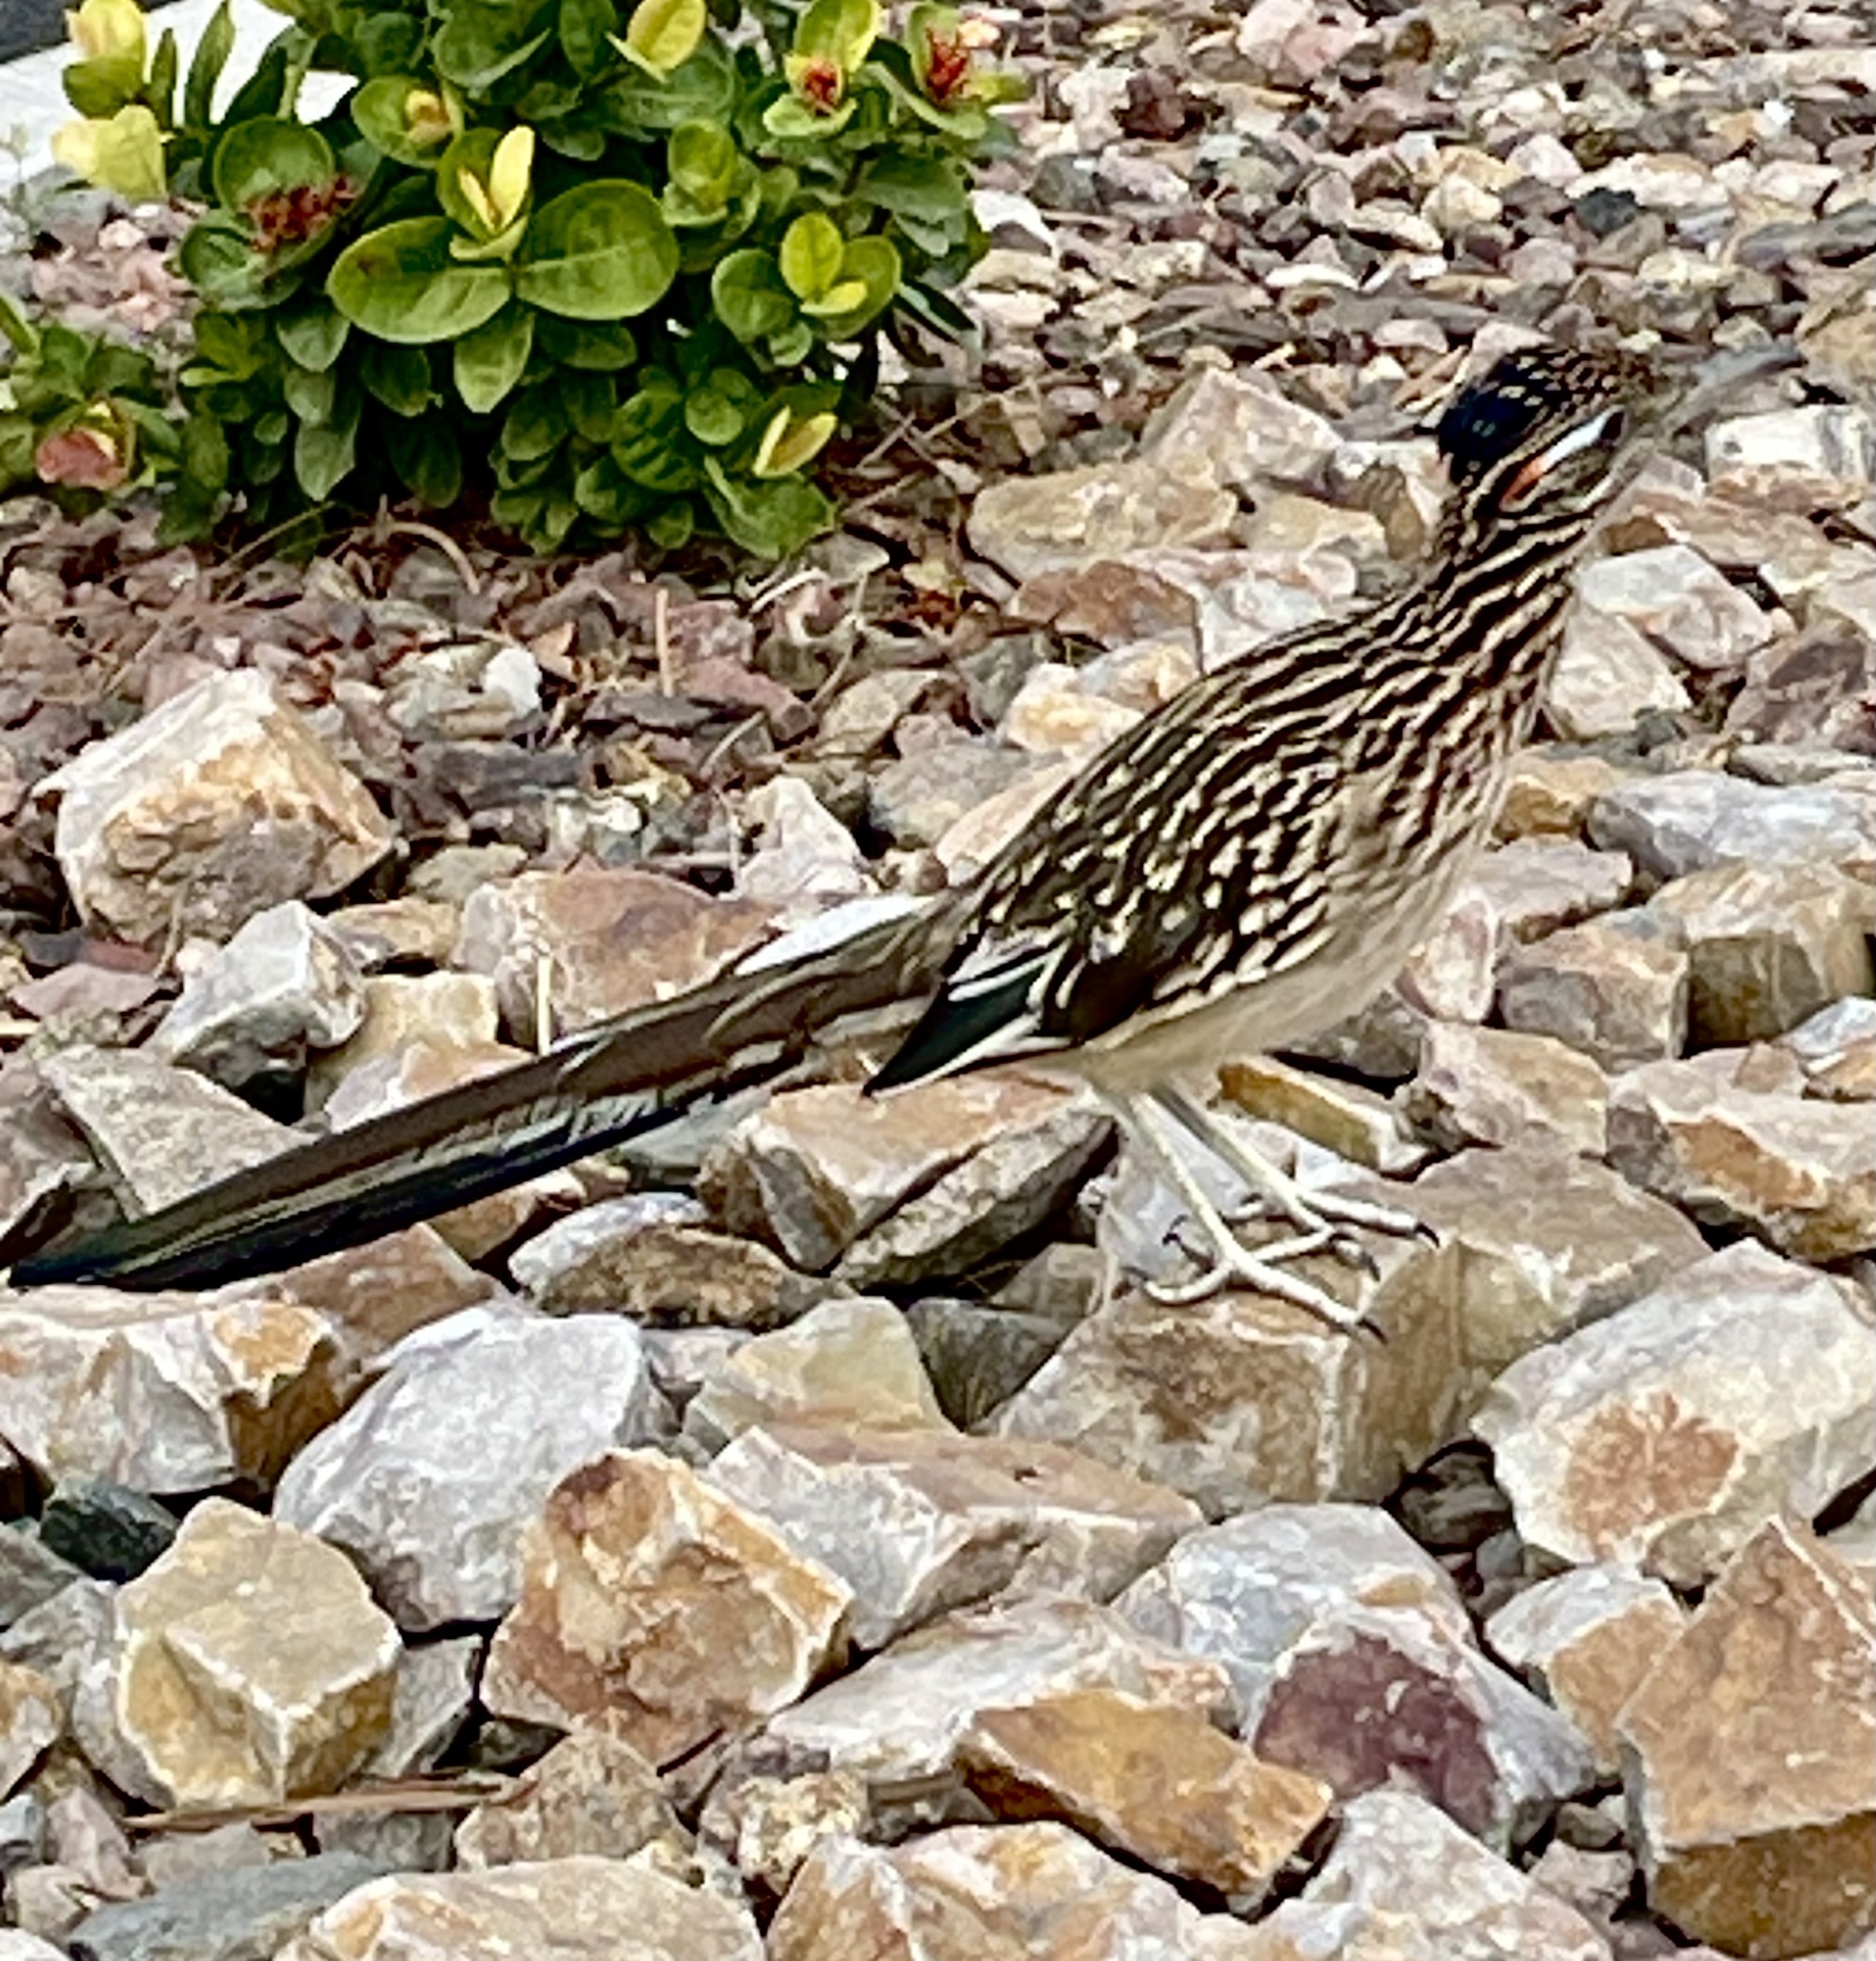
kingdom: Animalia
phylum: Chordata
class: Aves
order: Cuculiformes
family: Cuculidae
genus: Geococcyx
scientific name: Geococcyx californianus
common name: Greater roadrunner
